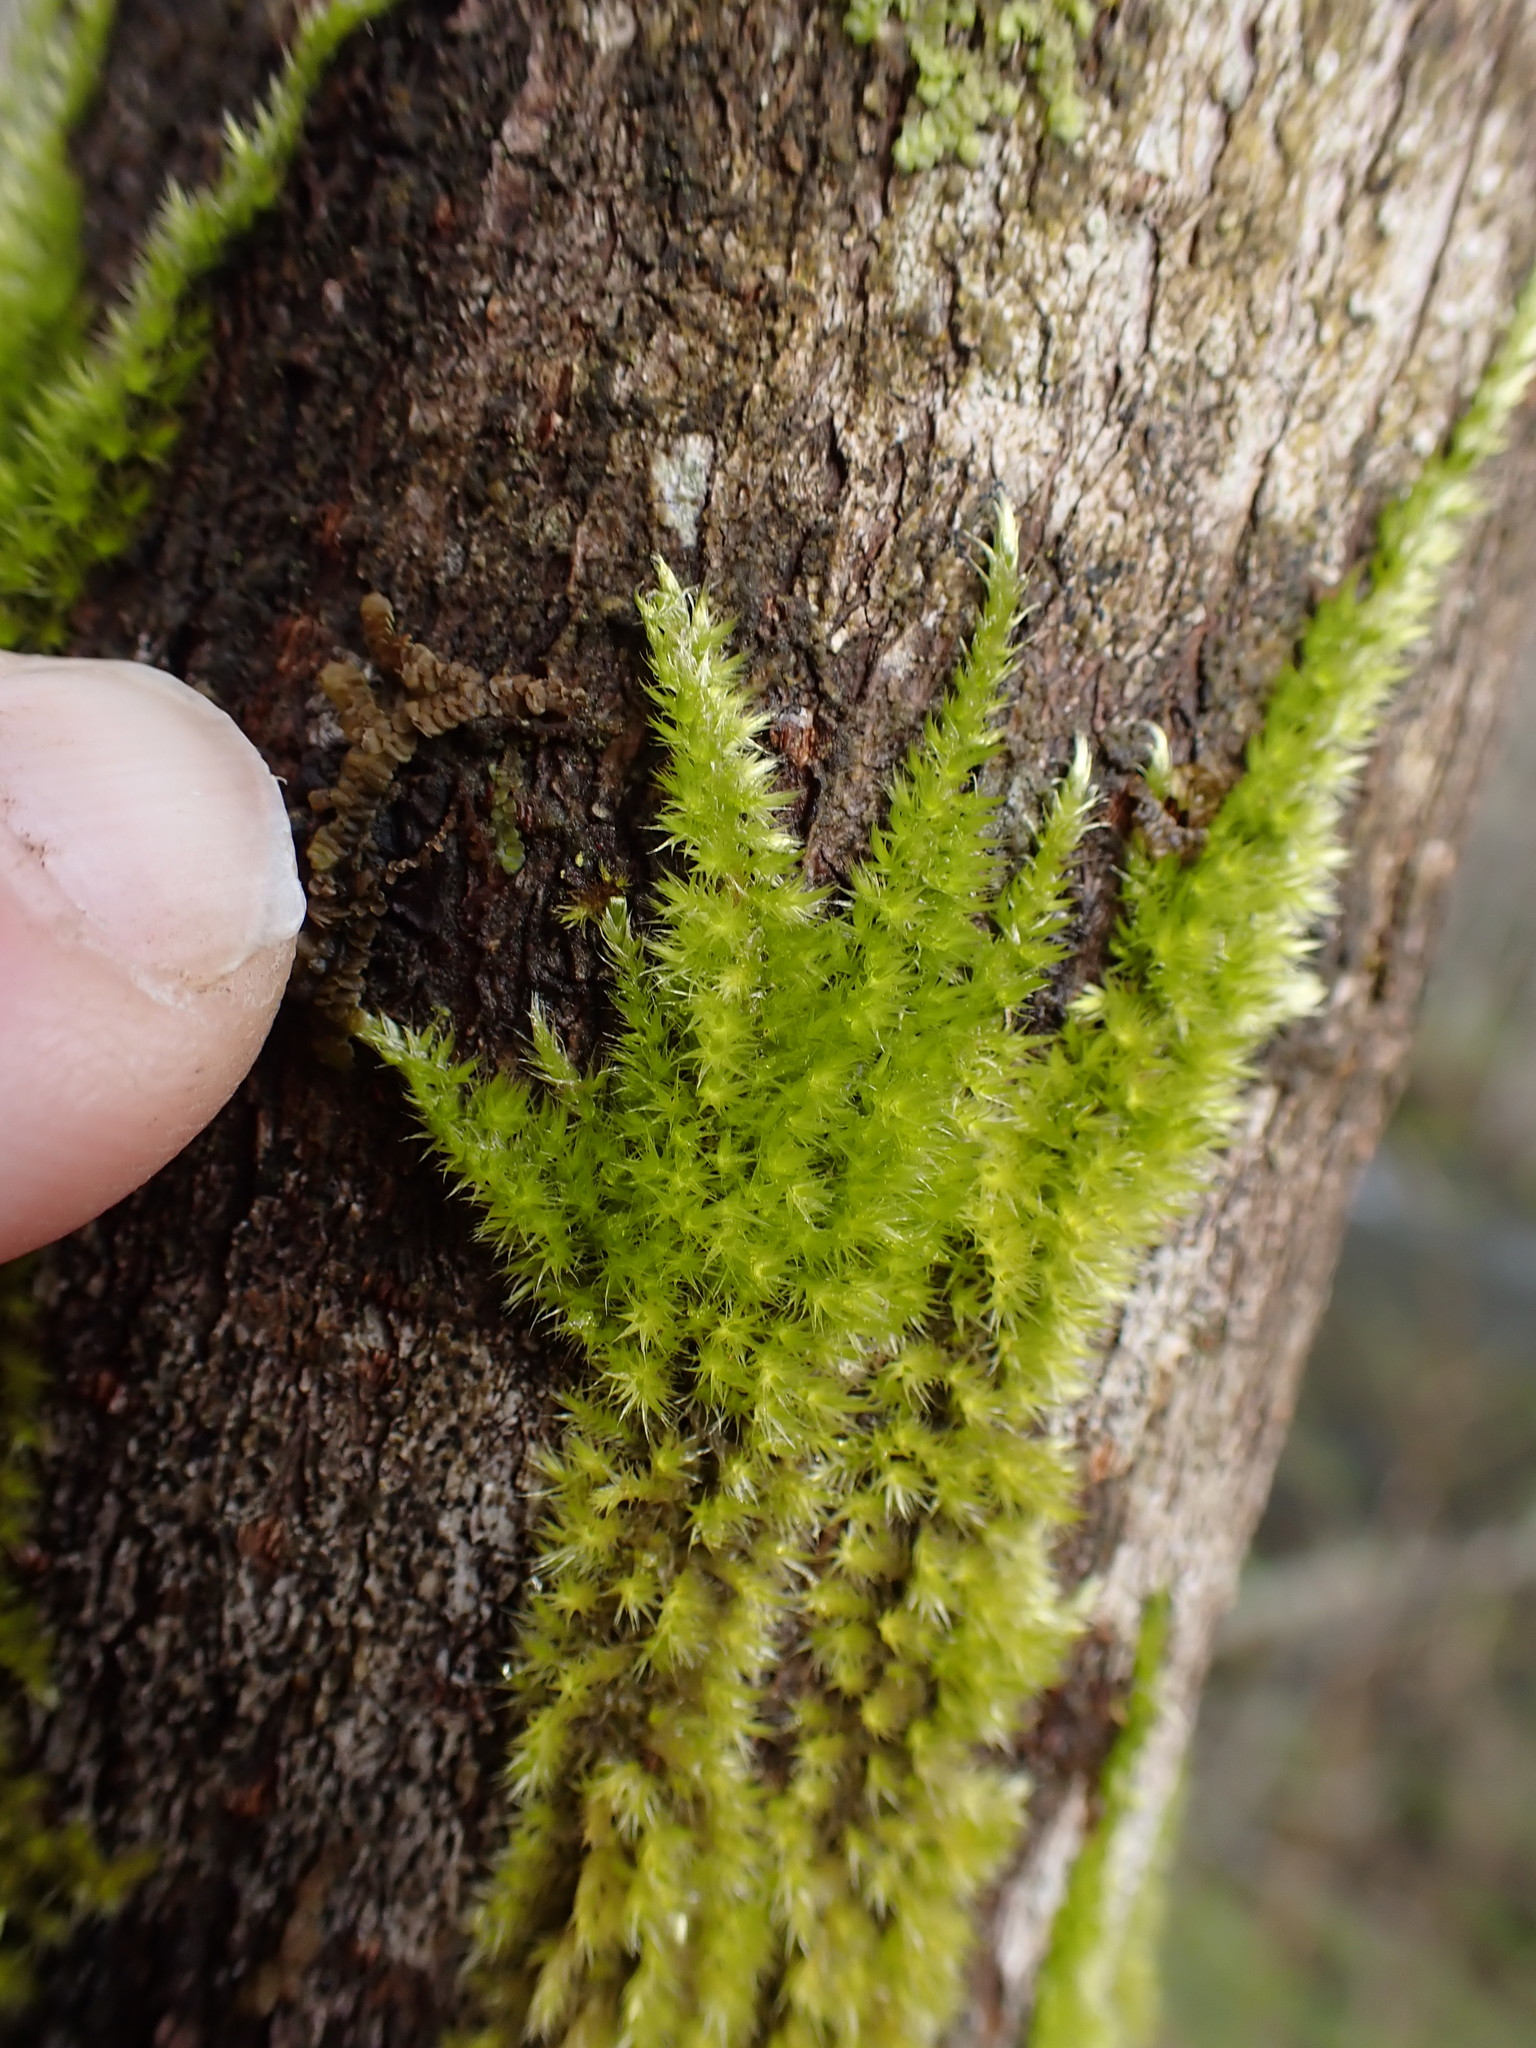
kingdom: Plantae
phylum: Bryophyta
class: Bryopsida
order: Hypnales
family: Brachytheciaceae
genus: Homalothecium
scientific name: Homalothecium nuttallii
